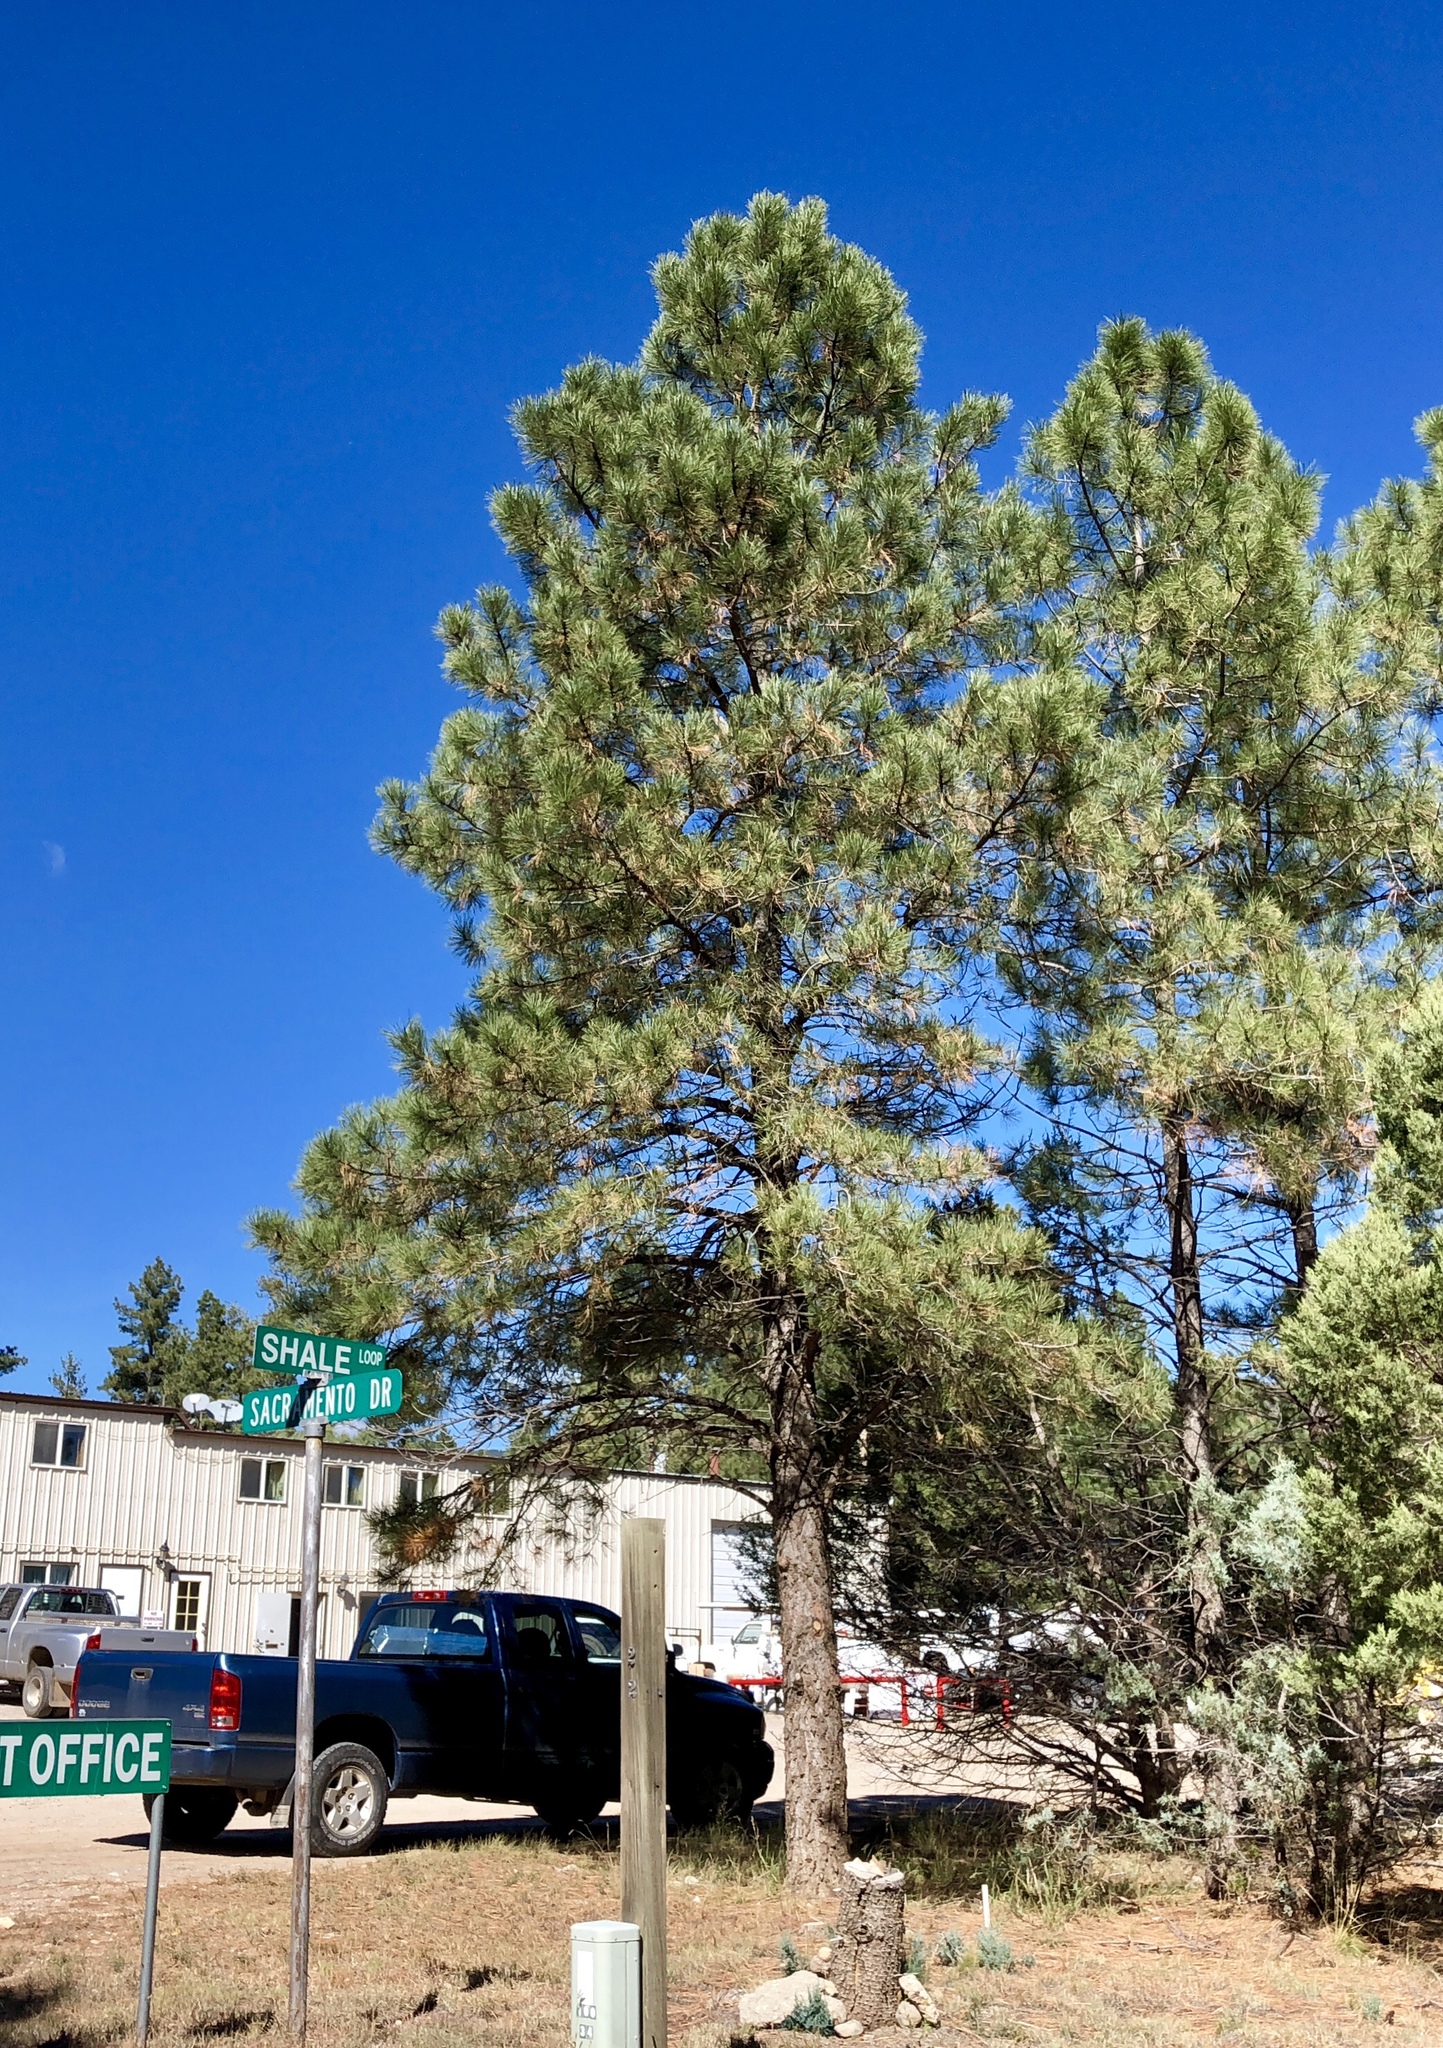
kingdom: Plantae
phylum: Tracheophyta
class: Pinopsida
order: Pinales
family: Pinaceae
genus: Pinus
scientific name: Pinus ponderosa
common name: Western yellow-pine
